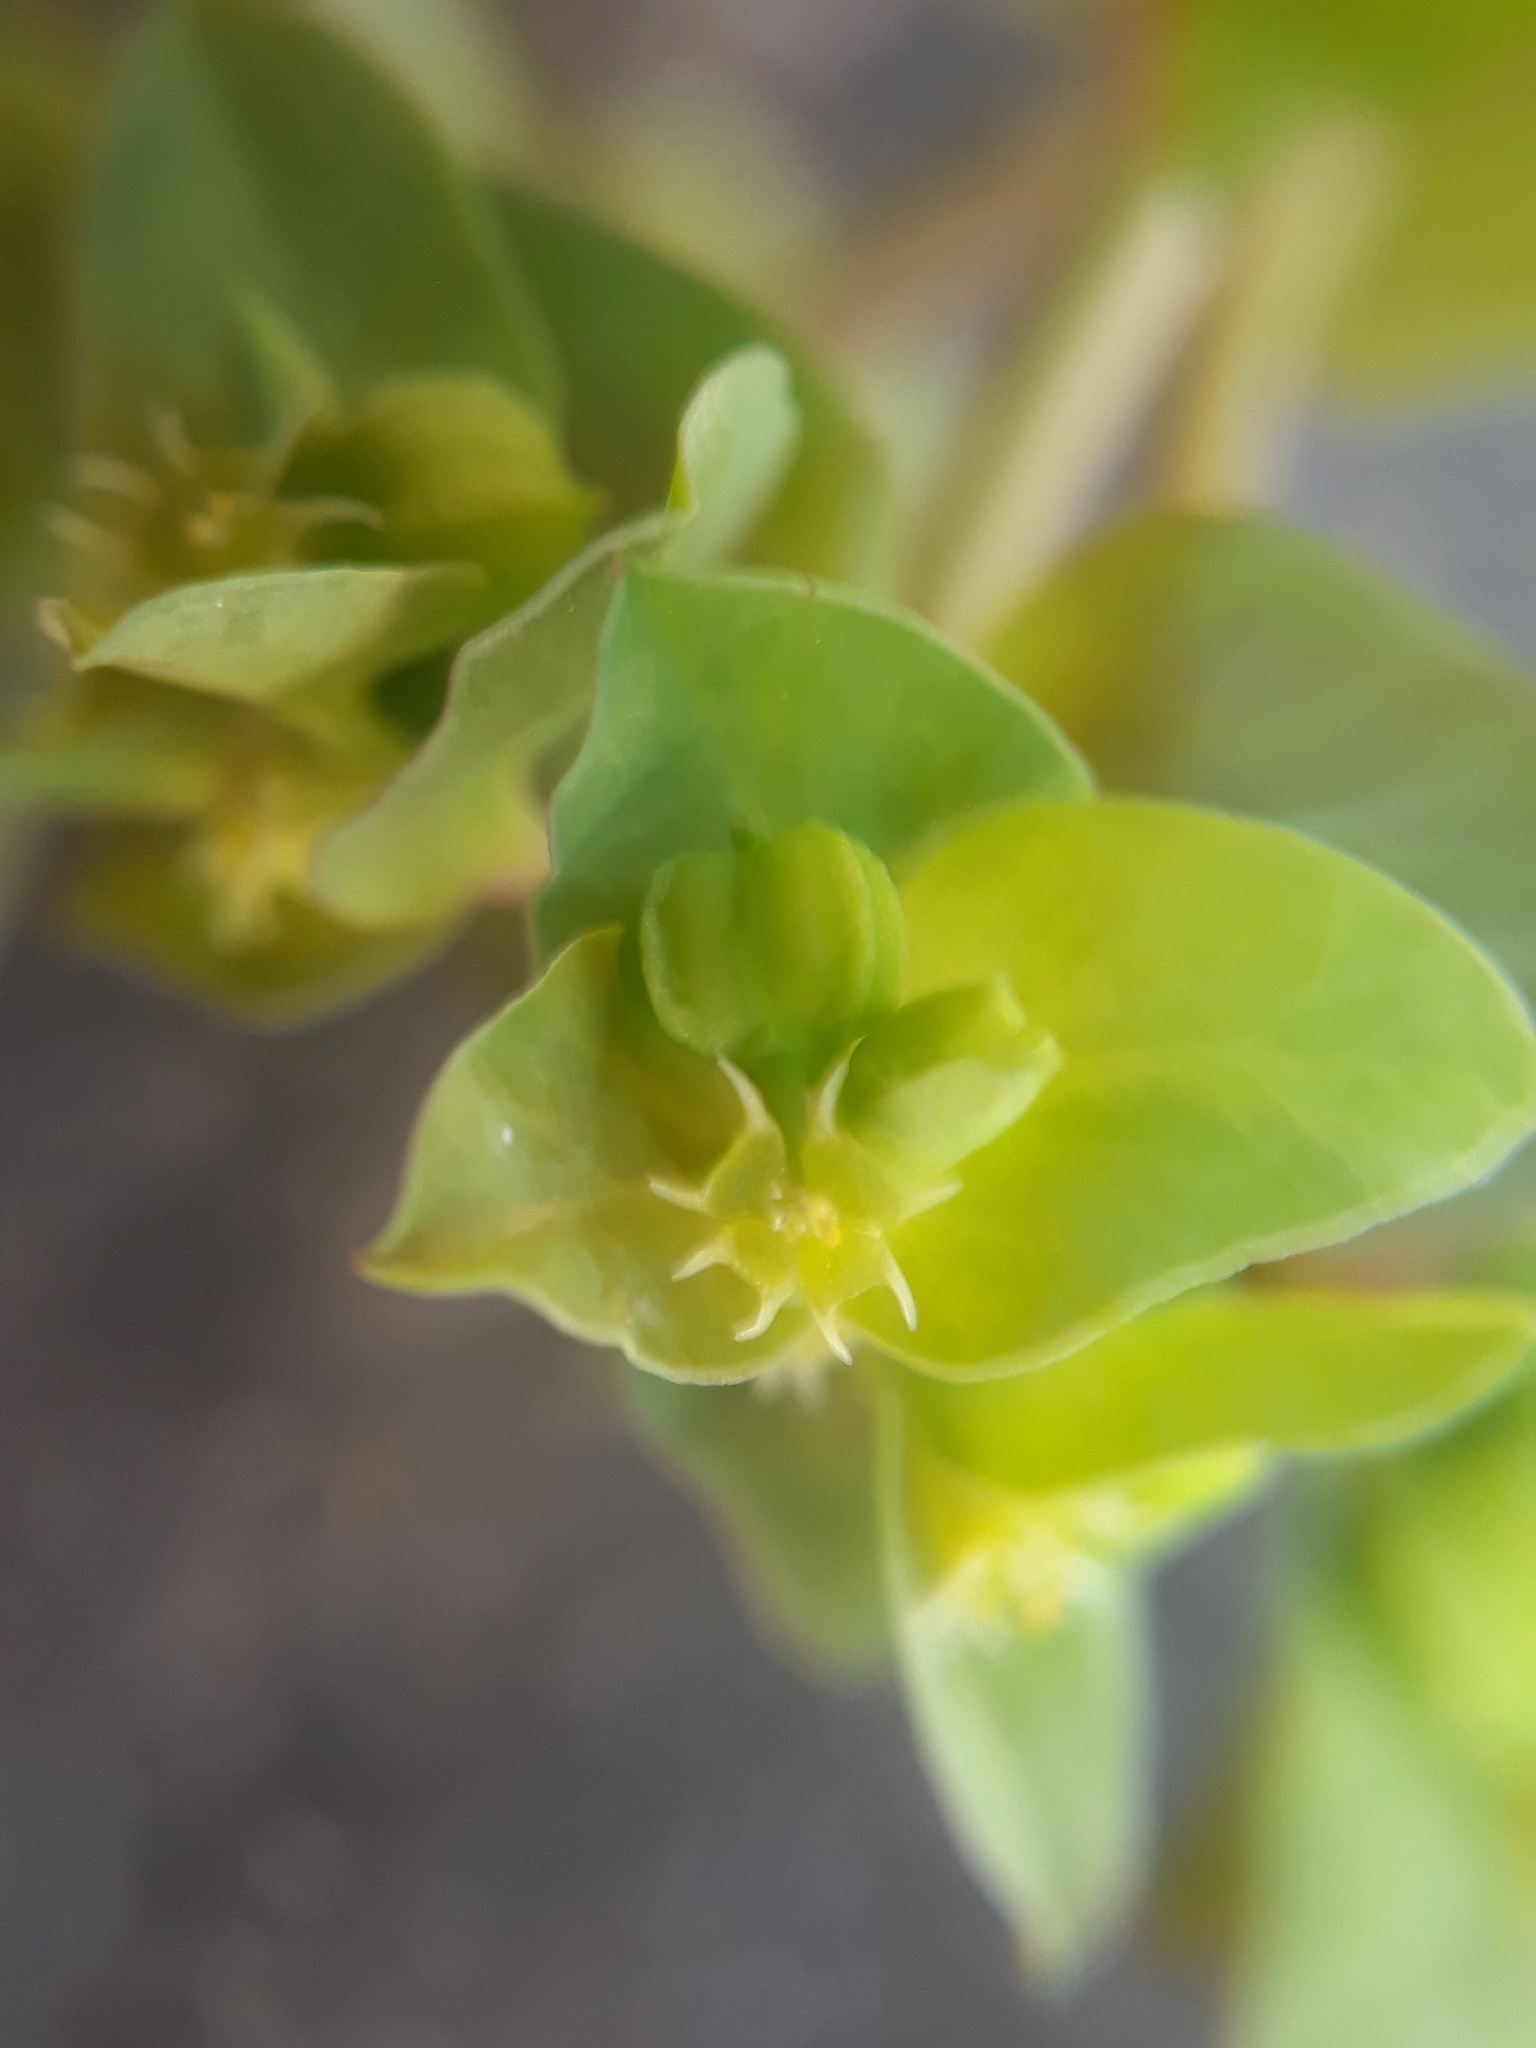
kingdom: Plantae
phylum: Tracheophyta
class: Magnoliopsida
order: Malpighiales
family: Euphorbiaceae
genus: Euphorbia
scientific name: Euphorbia peplus
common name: Petty spurge
